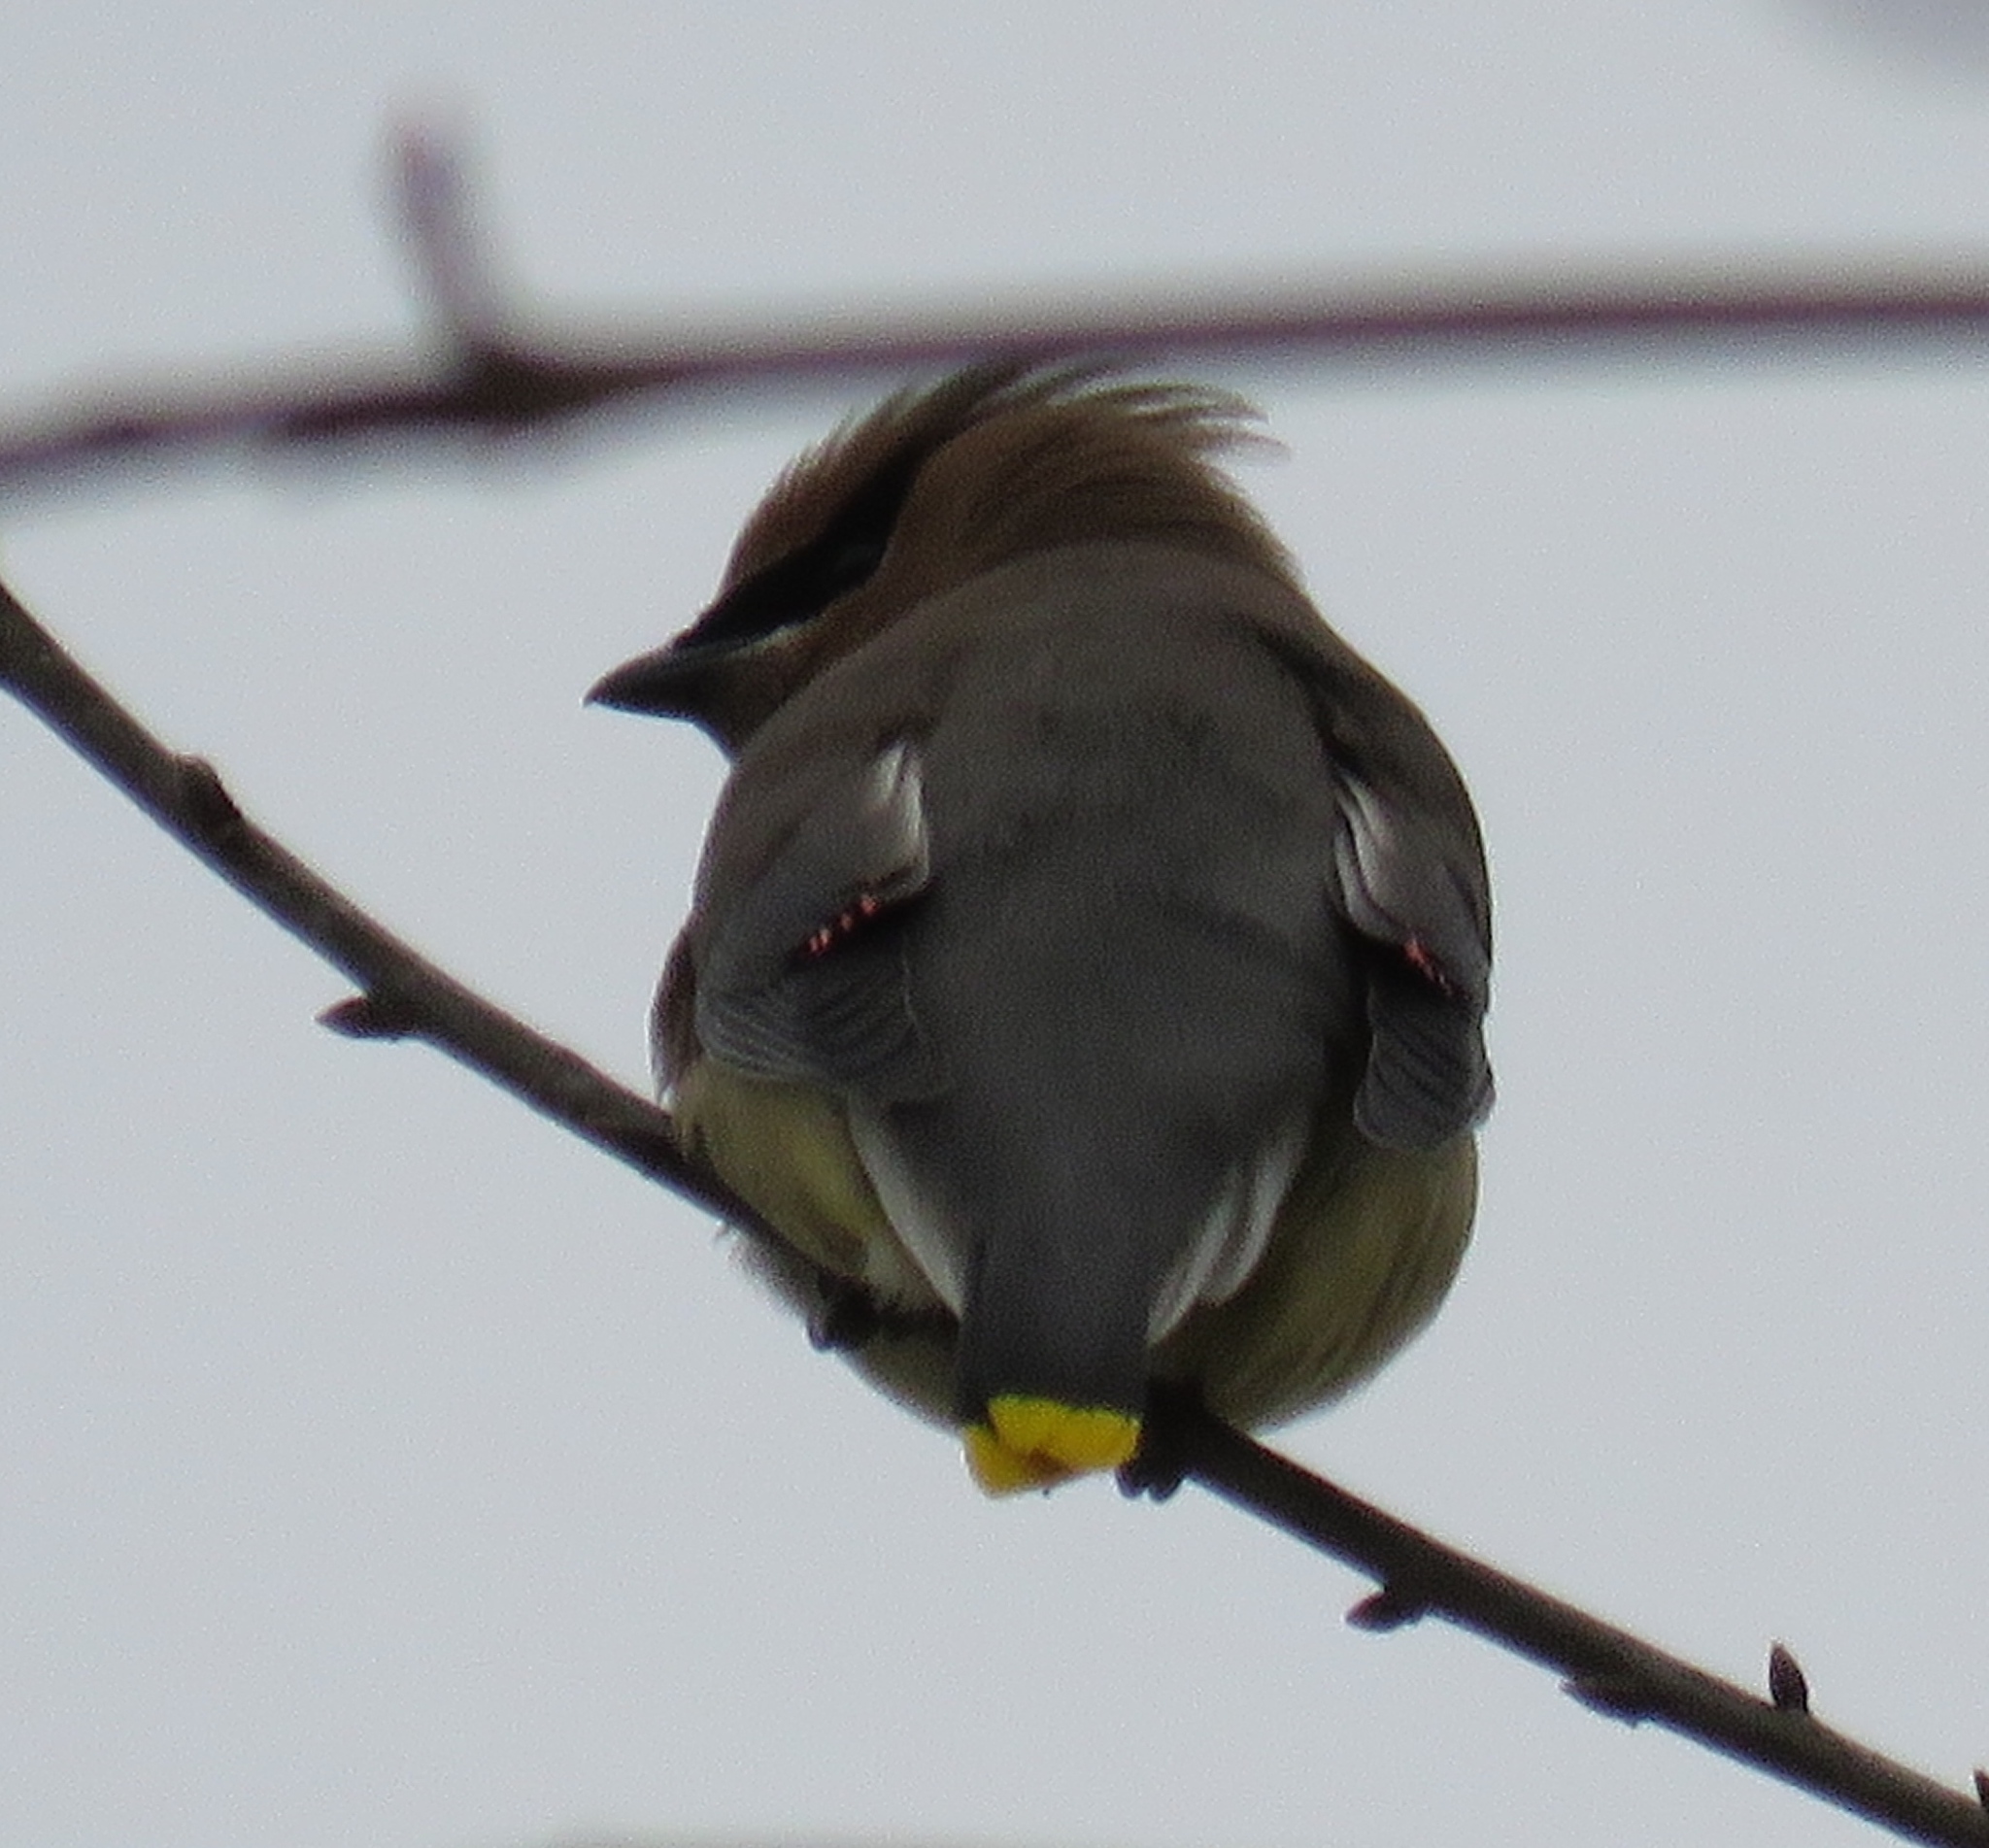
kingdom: Animalia
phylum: Chordata
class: Aves
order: Passeriformes
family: Bombycillidae
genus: Bombycilla
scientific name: Bombycilla cedrorum
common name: Cedar waxwing
